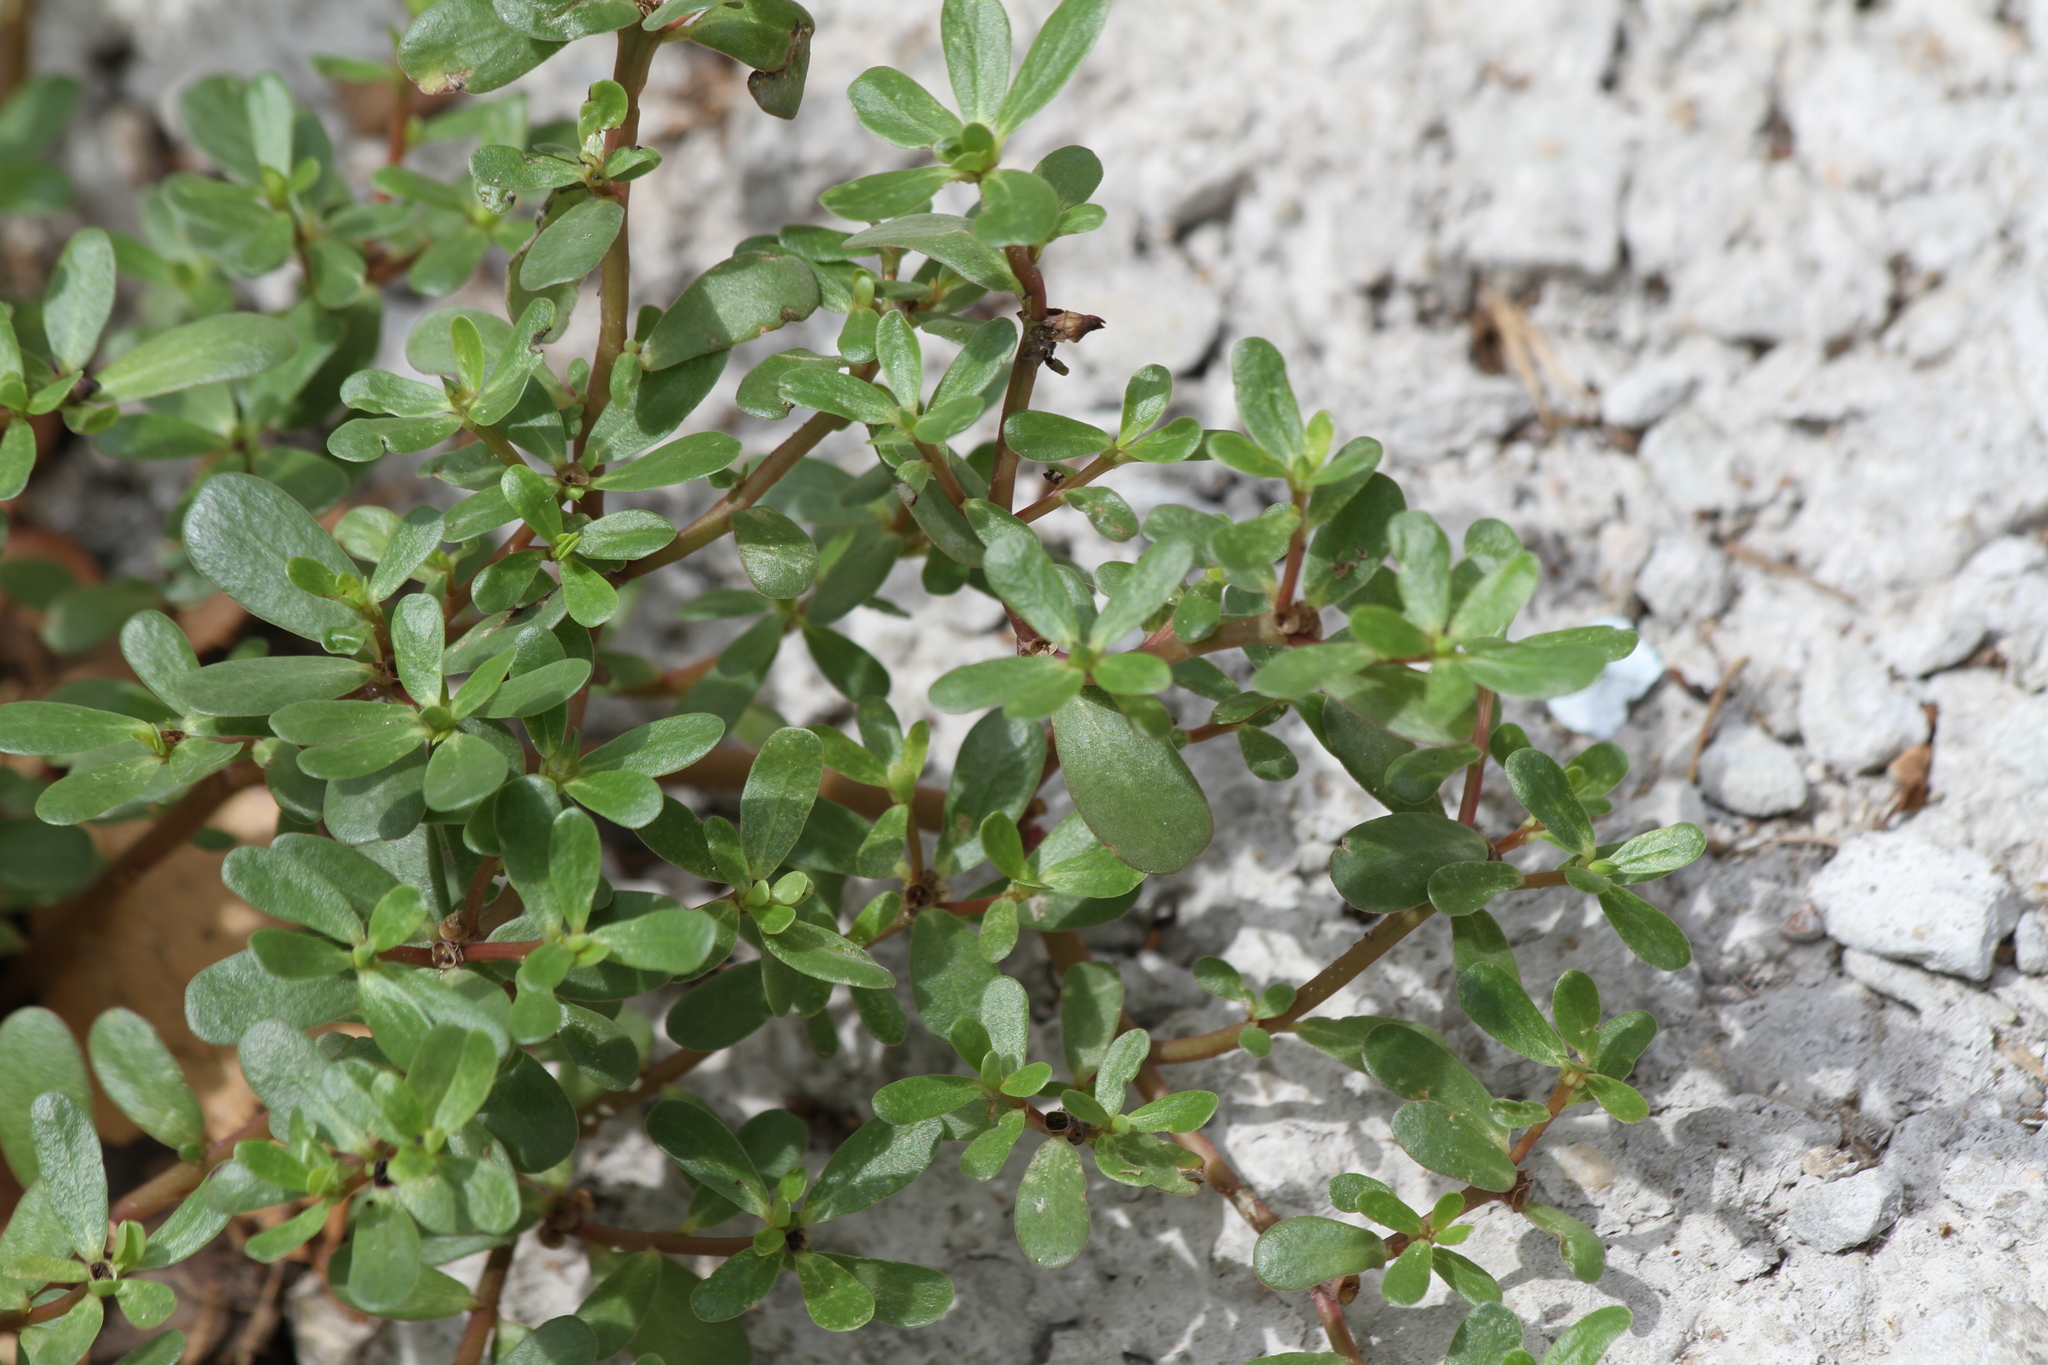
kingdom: Plantae
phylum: Tracheophyta
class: Magnoliopsida
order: Caryophyllales
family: Portulacaceae
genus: Portulaca
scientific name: Portulaca oleracea
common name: Common purslane
